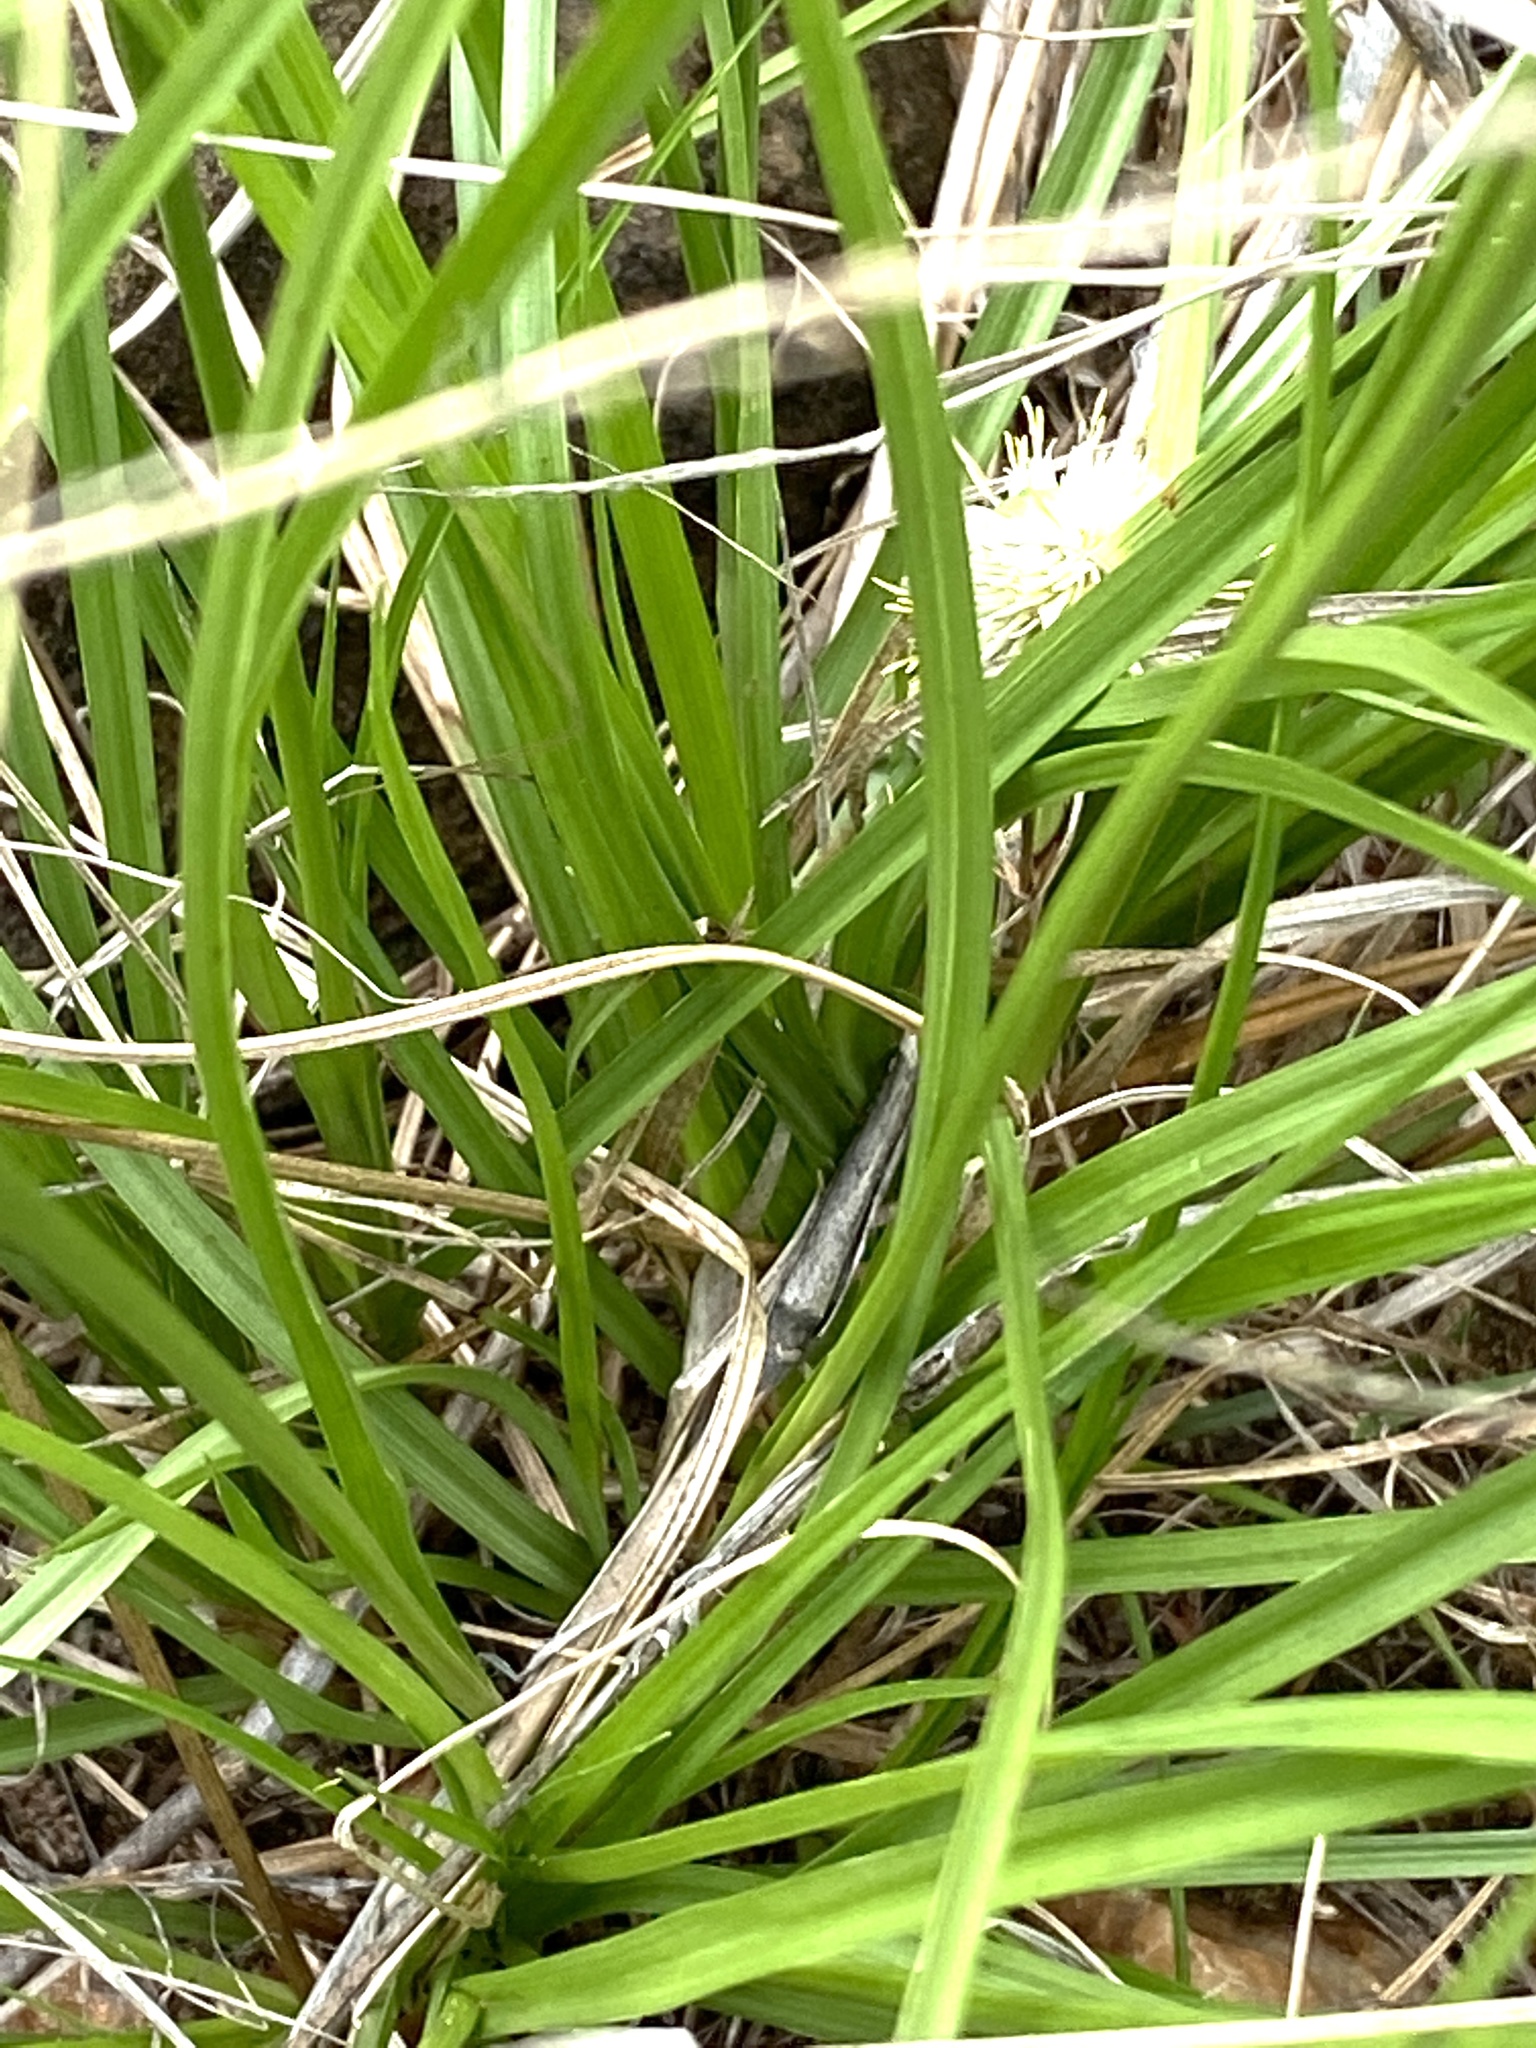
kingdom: Plantae
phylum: Tracheophyta
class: Liliopsida
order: Poales
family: Cyperaceae
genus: Cyperus
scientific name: Cyperus alatus
